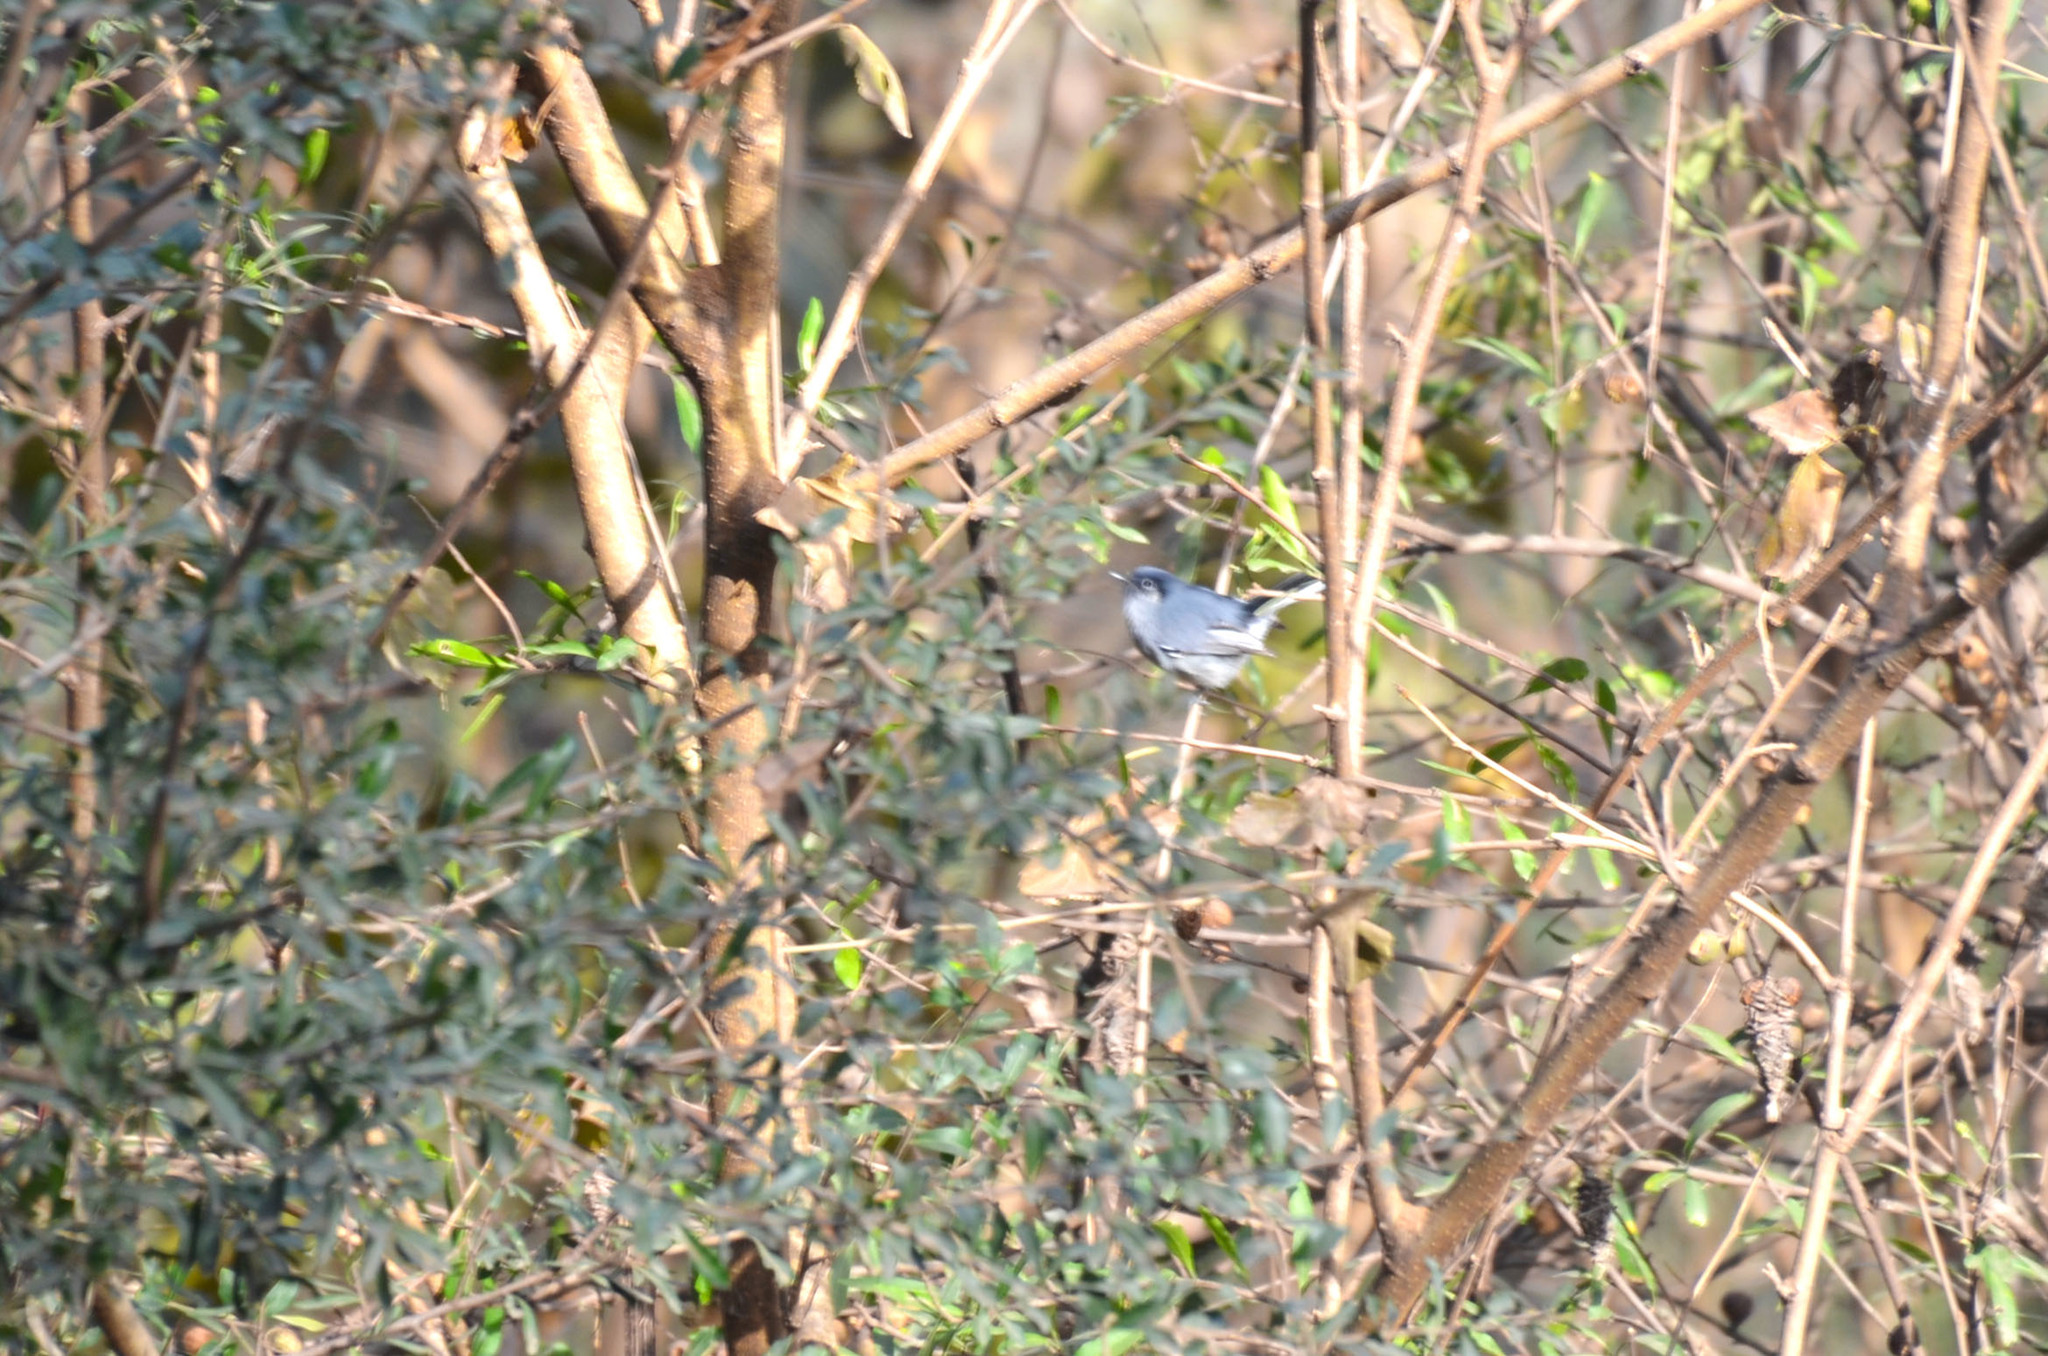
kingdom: Animalia
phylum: Chordata
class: Aves
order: Passeriformes
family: Polioptilidae
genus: Polioptila
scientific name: Polioptila dumicola
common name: Masked gnatcatcher
